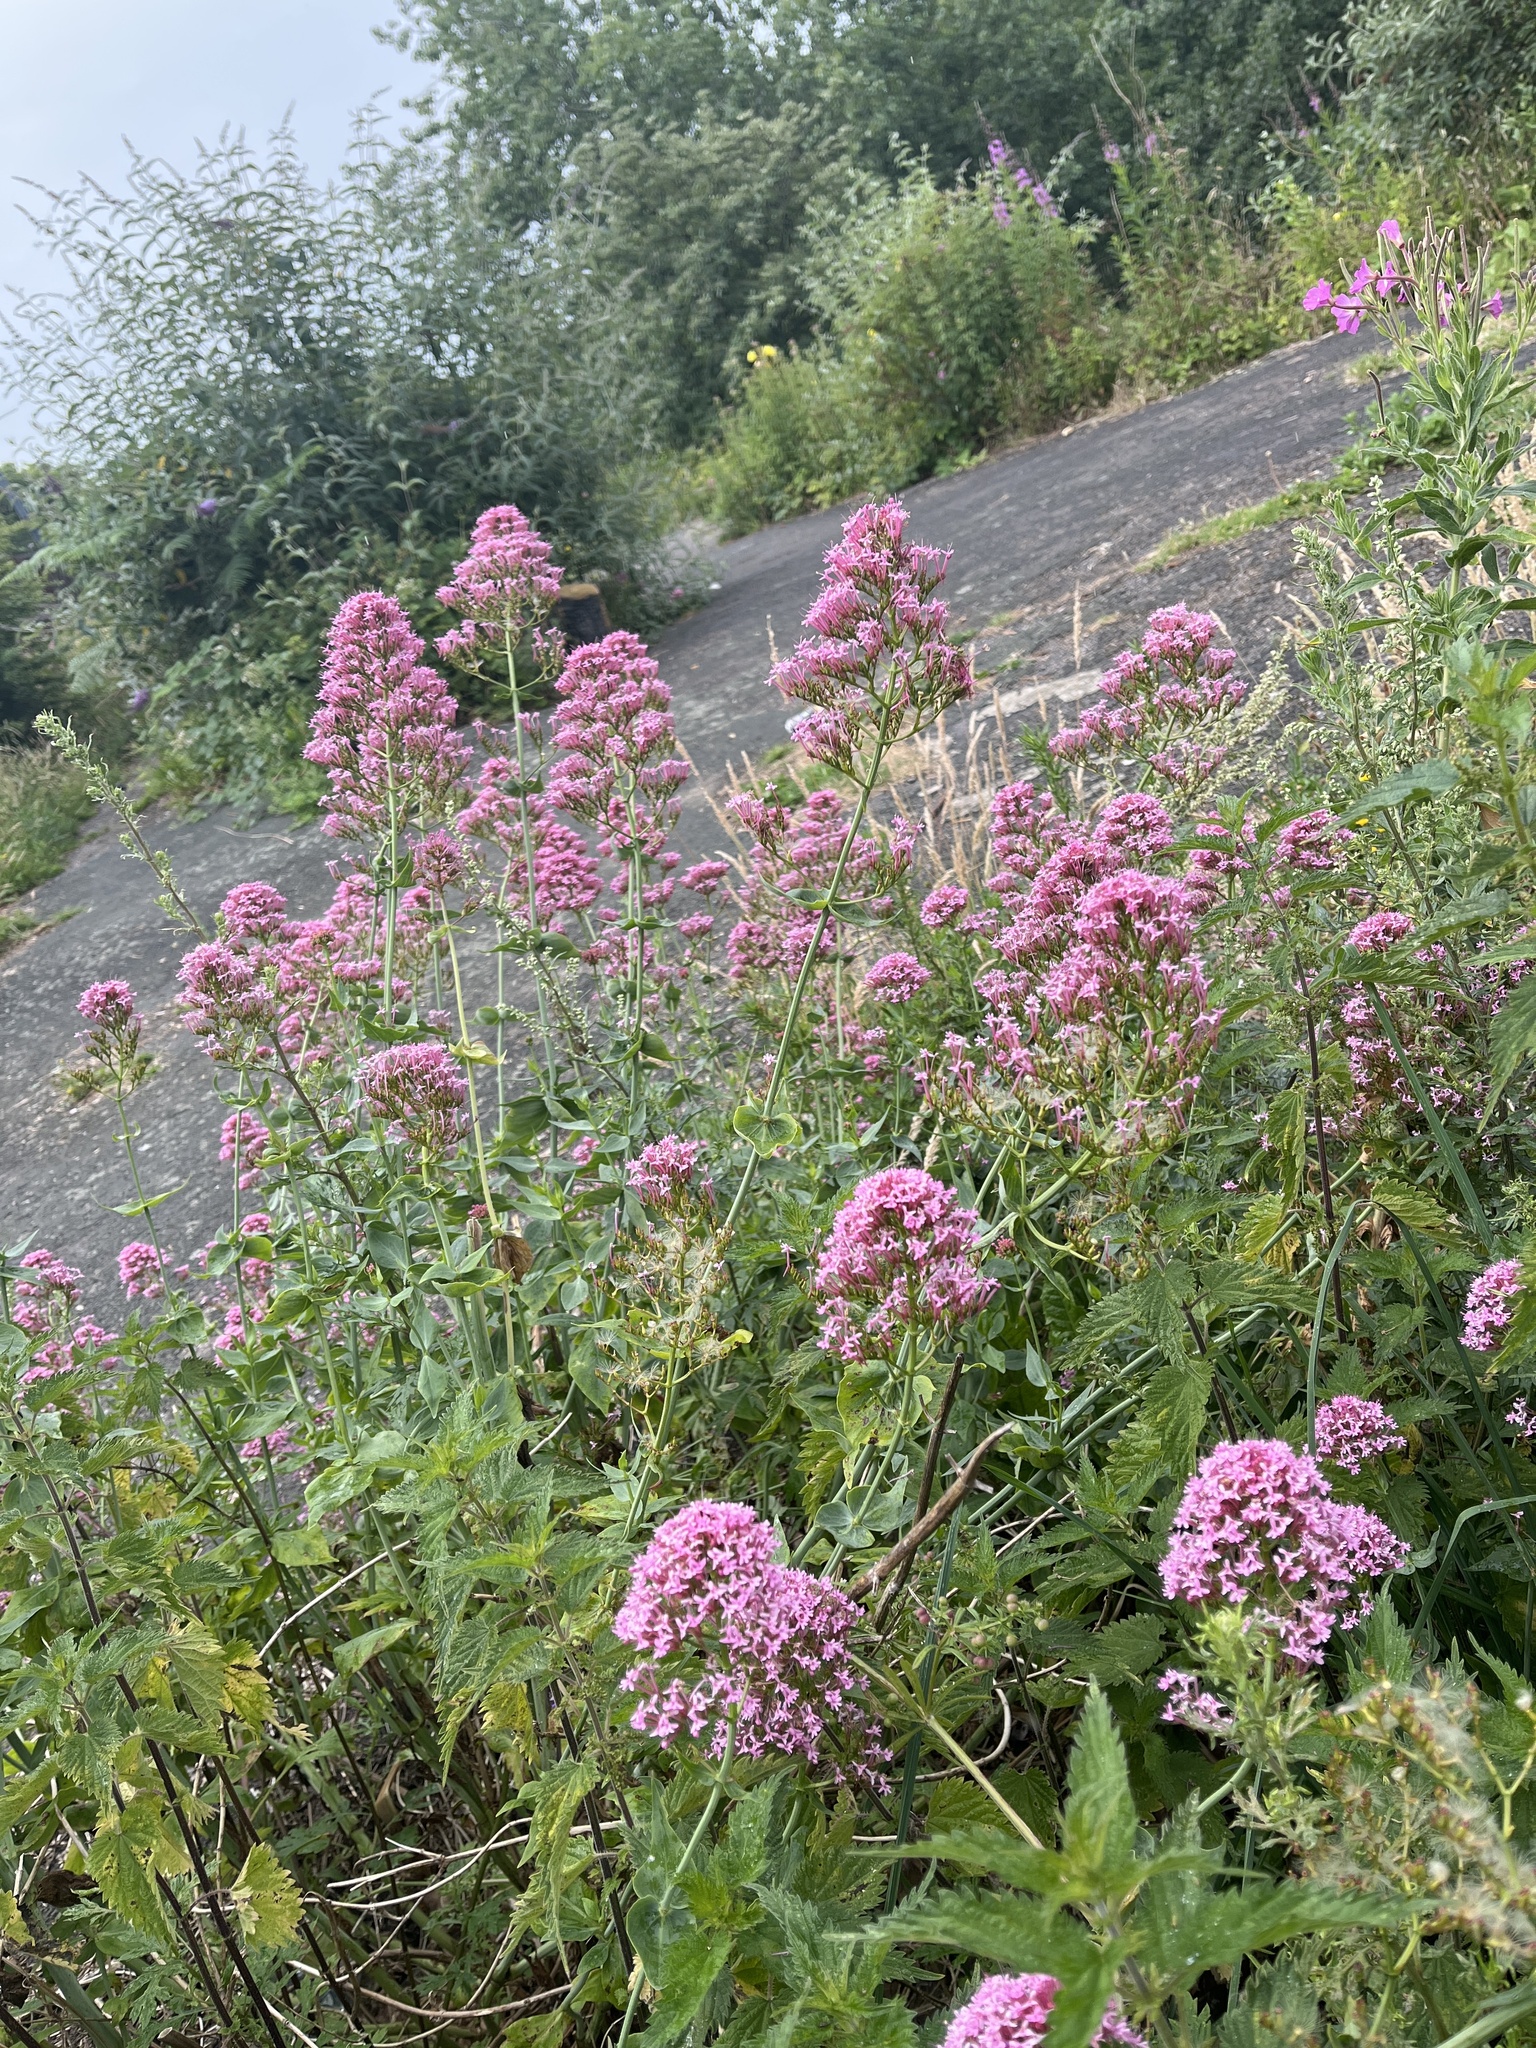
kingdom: Plantae
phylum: Tracheophyta
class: Magnoliopsida
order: Dipsacales
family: Caprifoliaceae
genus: Centranthus
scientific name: Centranthus ruber
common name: Red valerian
